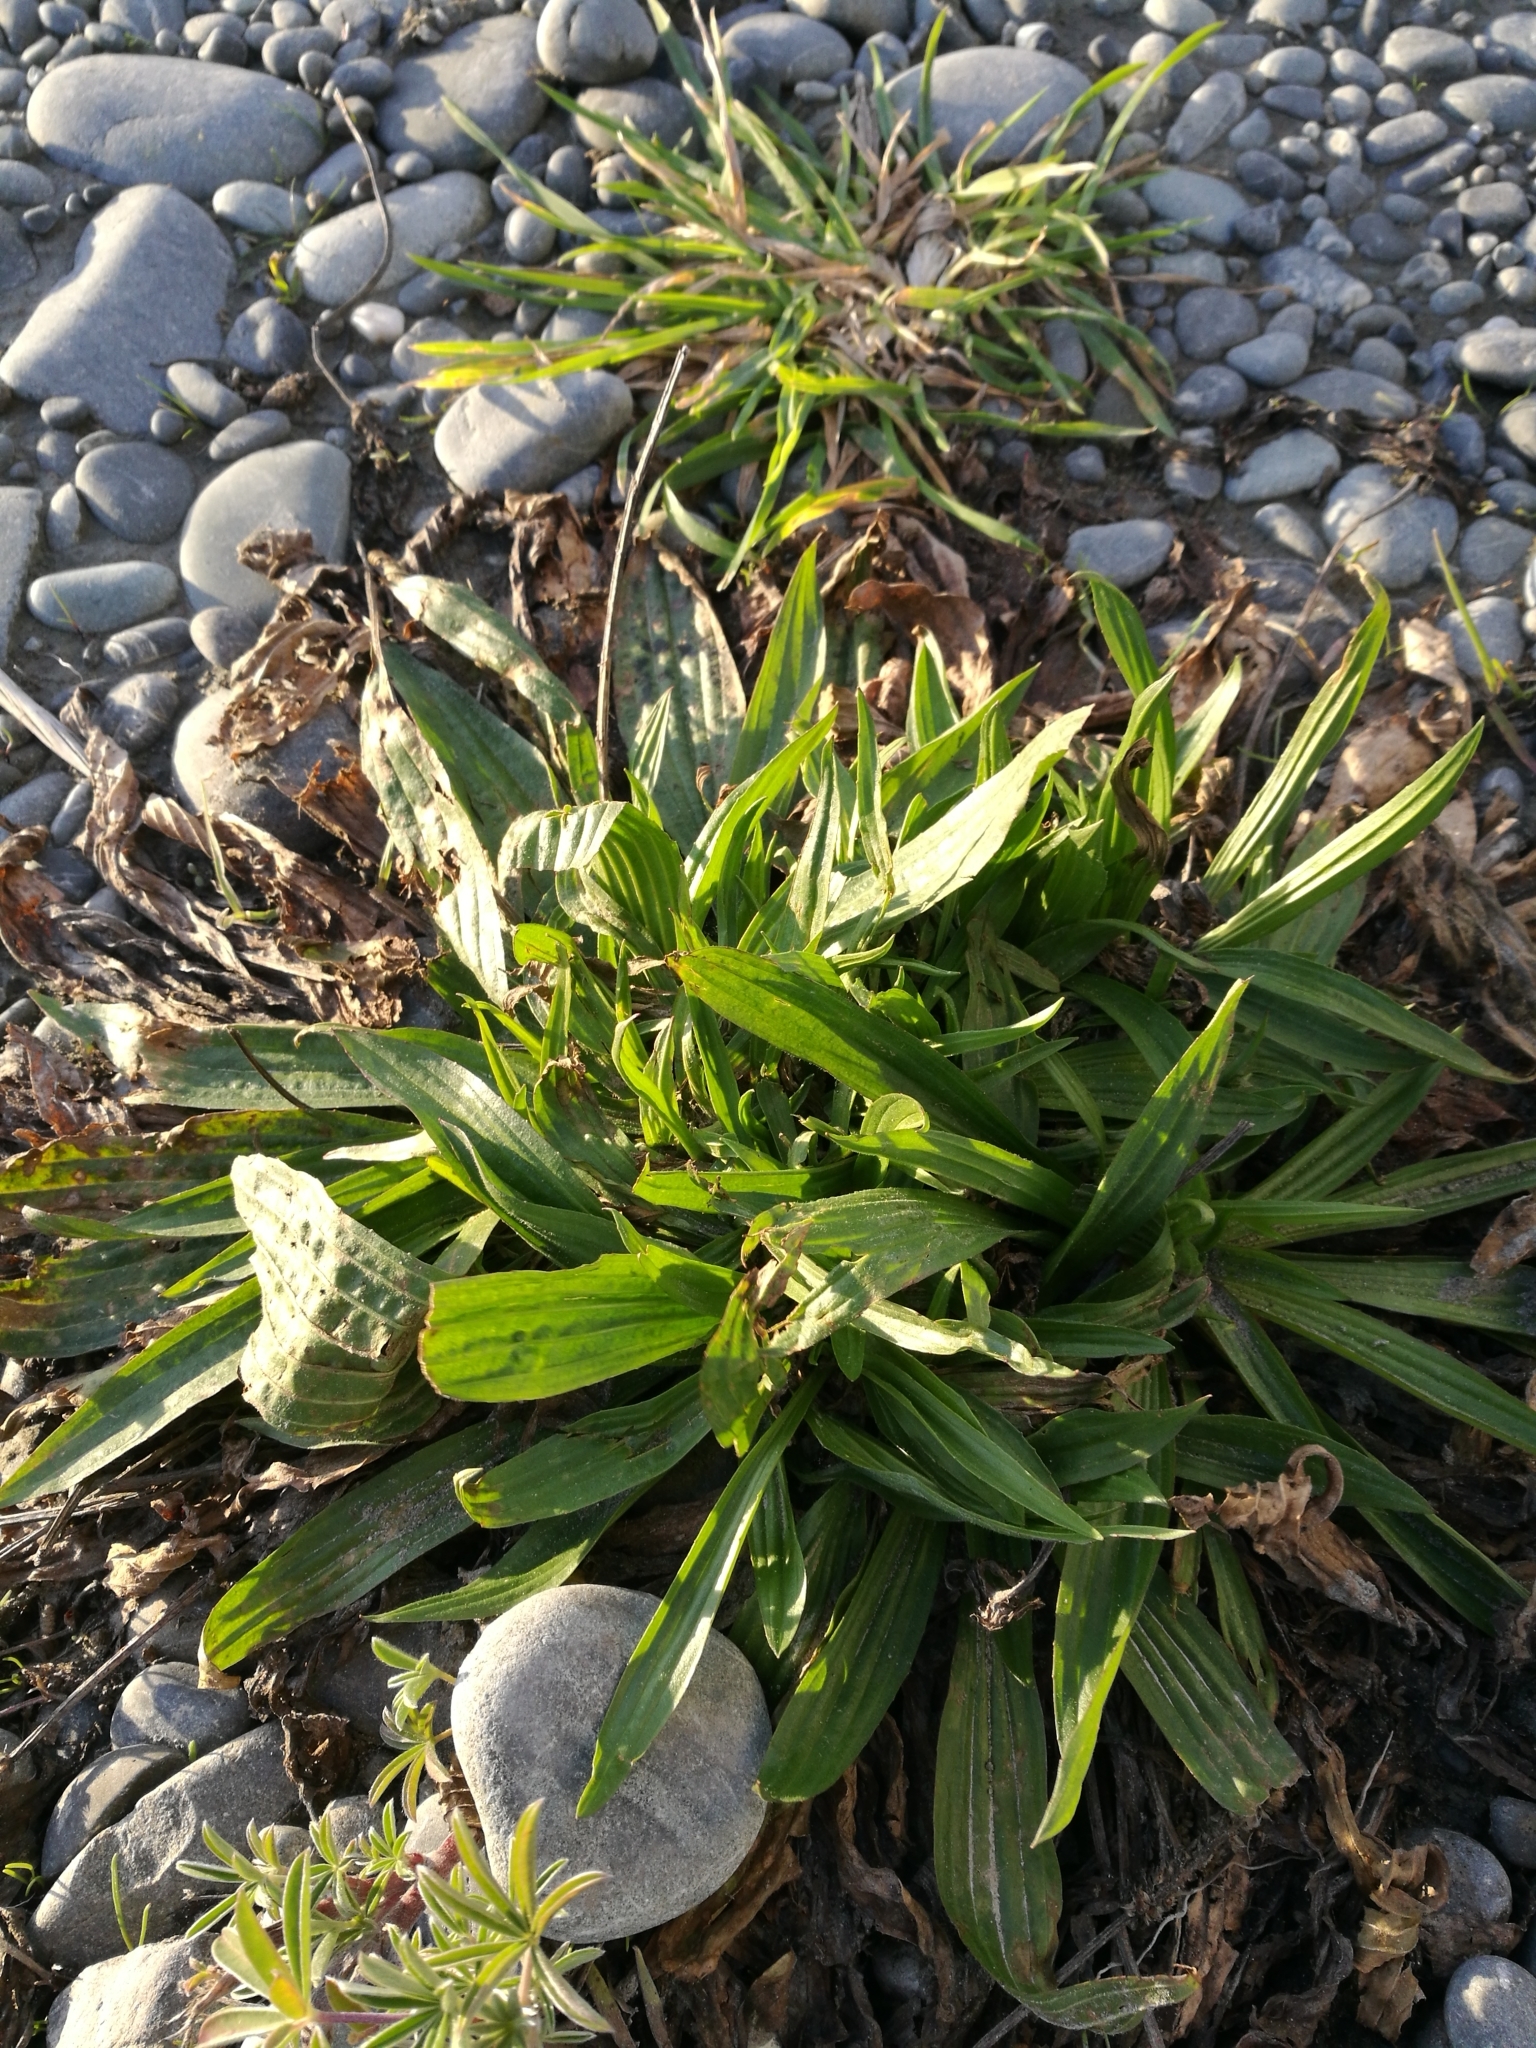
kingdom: Plantae
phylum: Tracheophyta
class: Magnoliopsida
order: Lamiales
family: Plantaginaceae
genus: Plantago
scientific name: Plantago lanceolata
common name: Ribwort plantain
